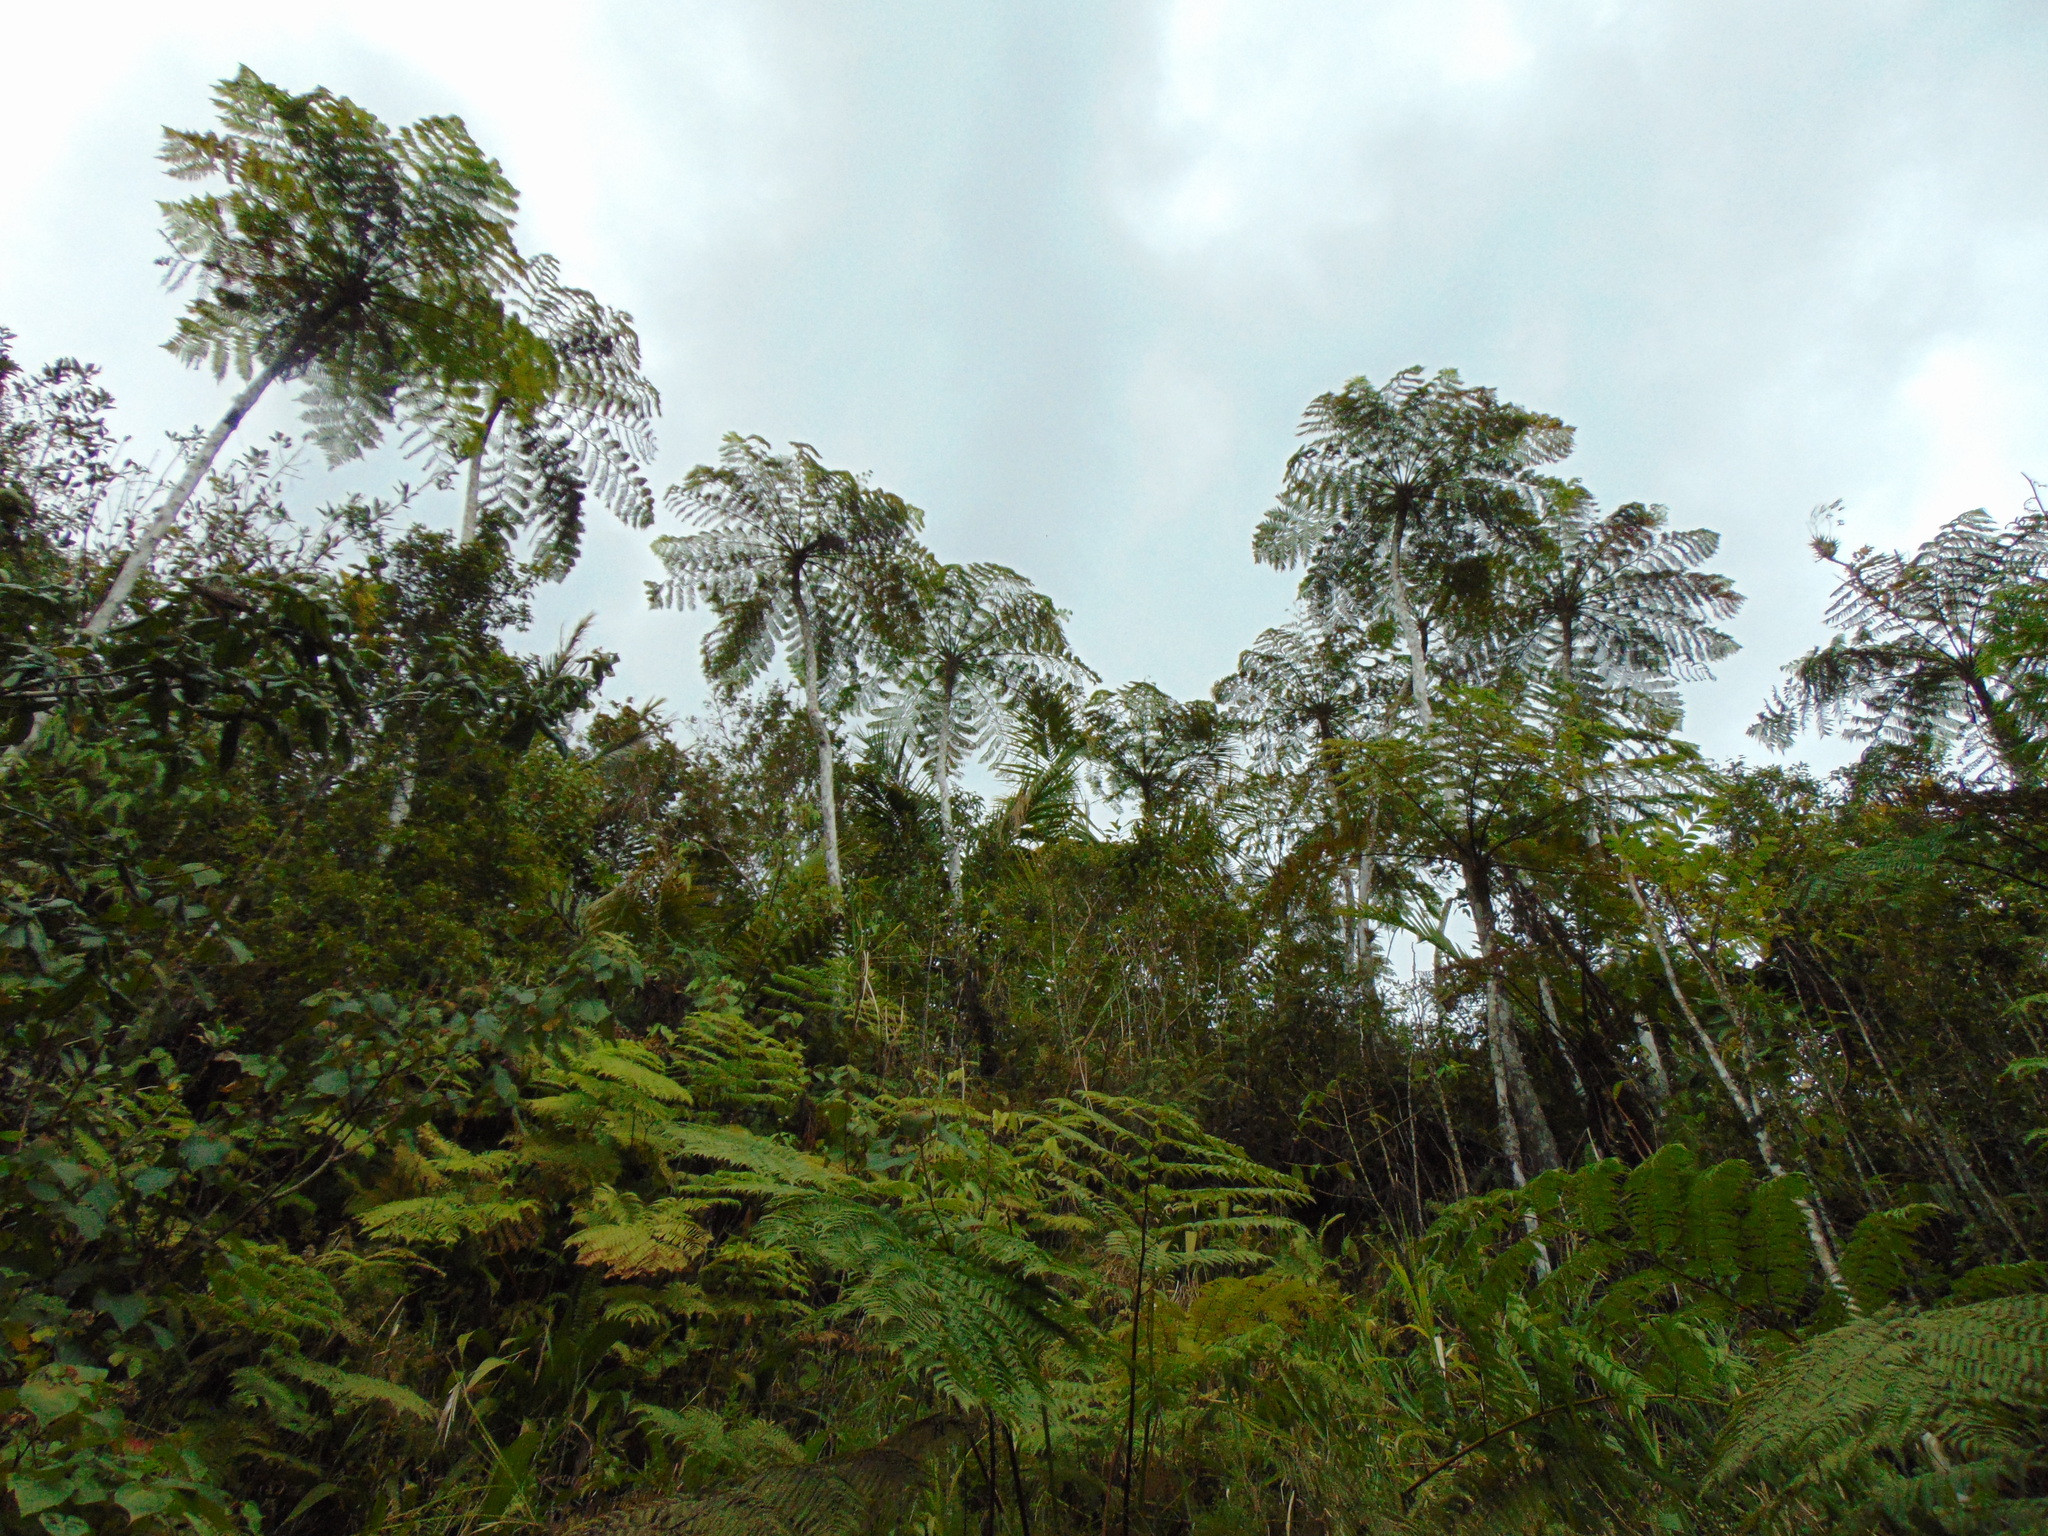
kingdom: Plantae
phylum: Tracheophyta
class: Polypodiopsida
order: Cyatheales
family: Cyatheaceae
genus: Cyathea
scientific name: Cyathea arborea
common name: West indian treefern
